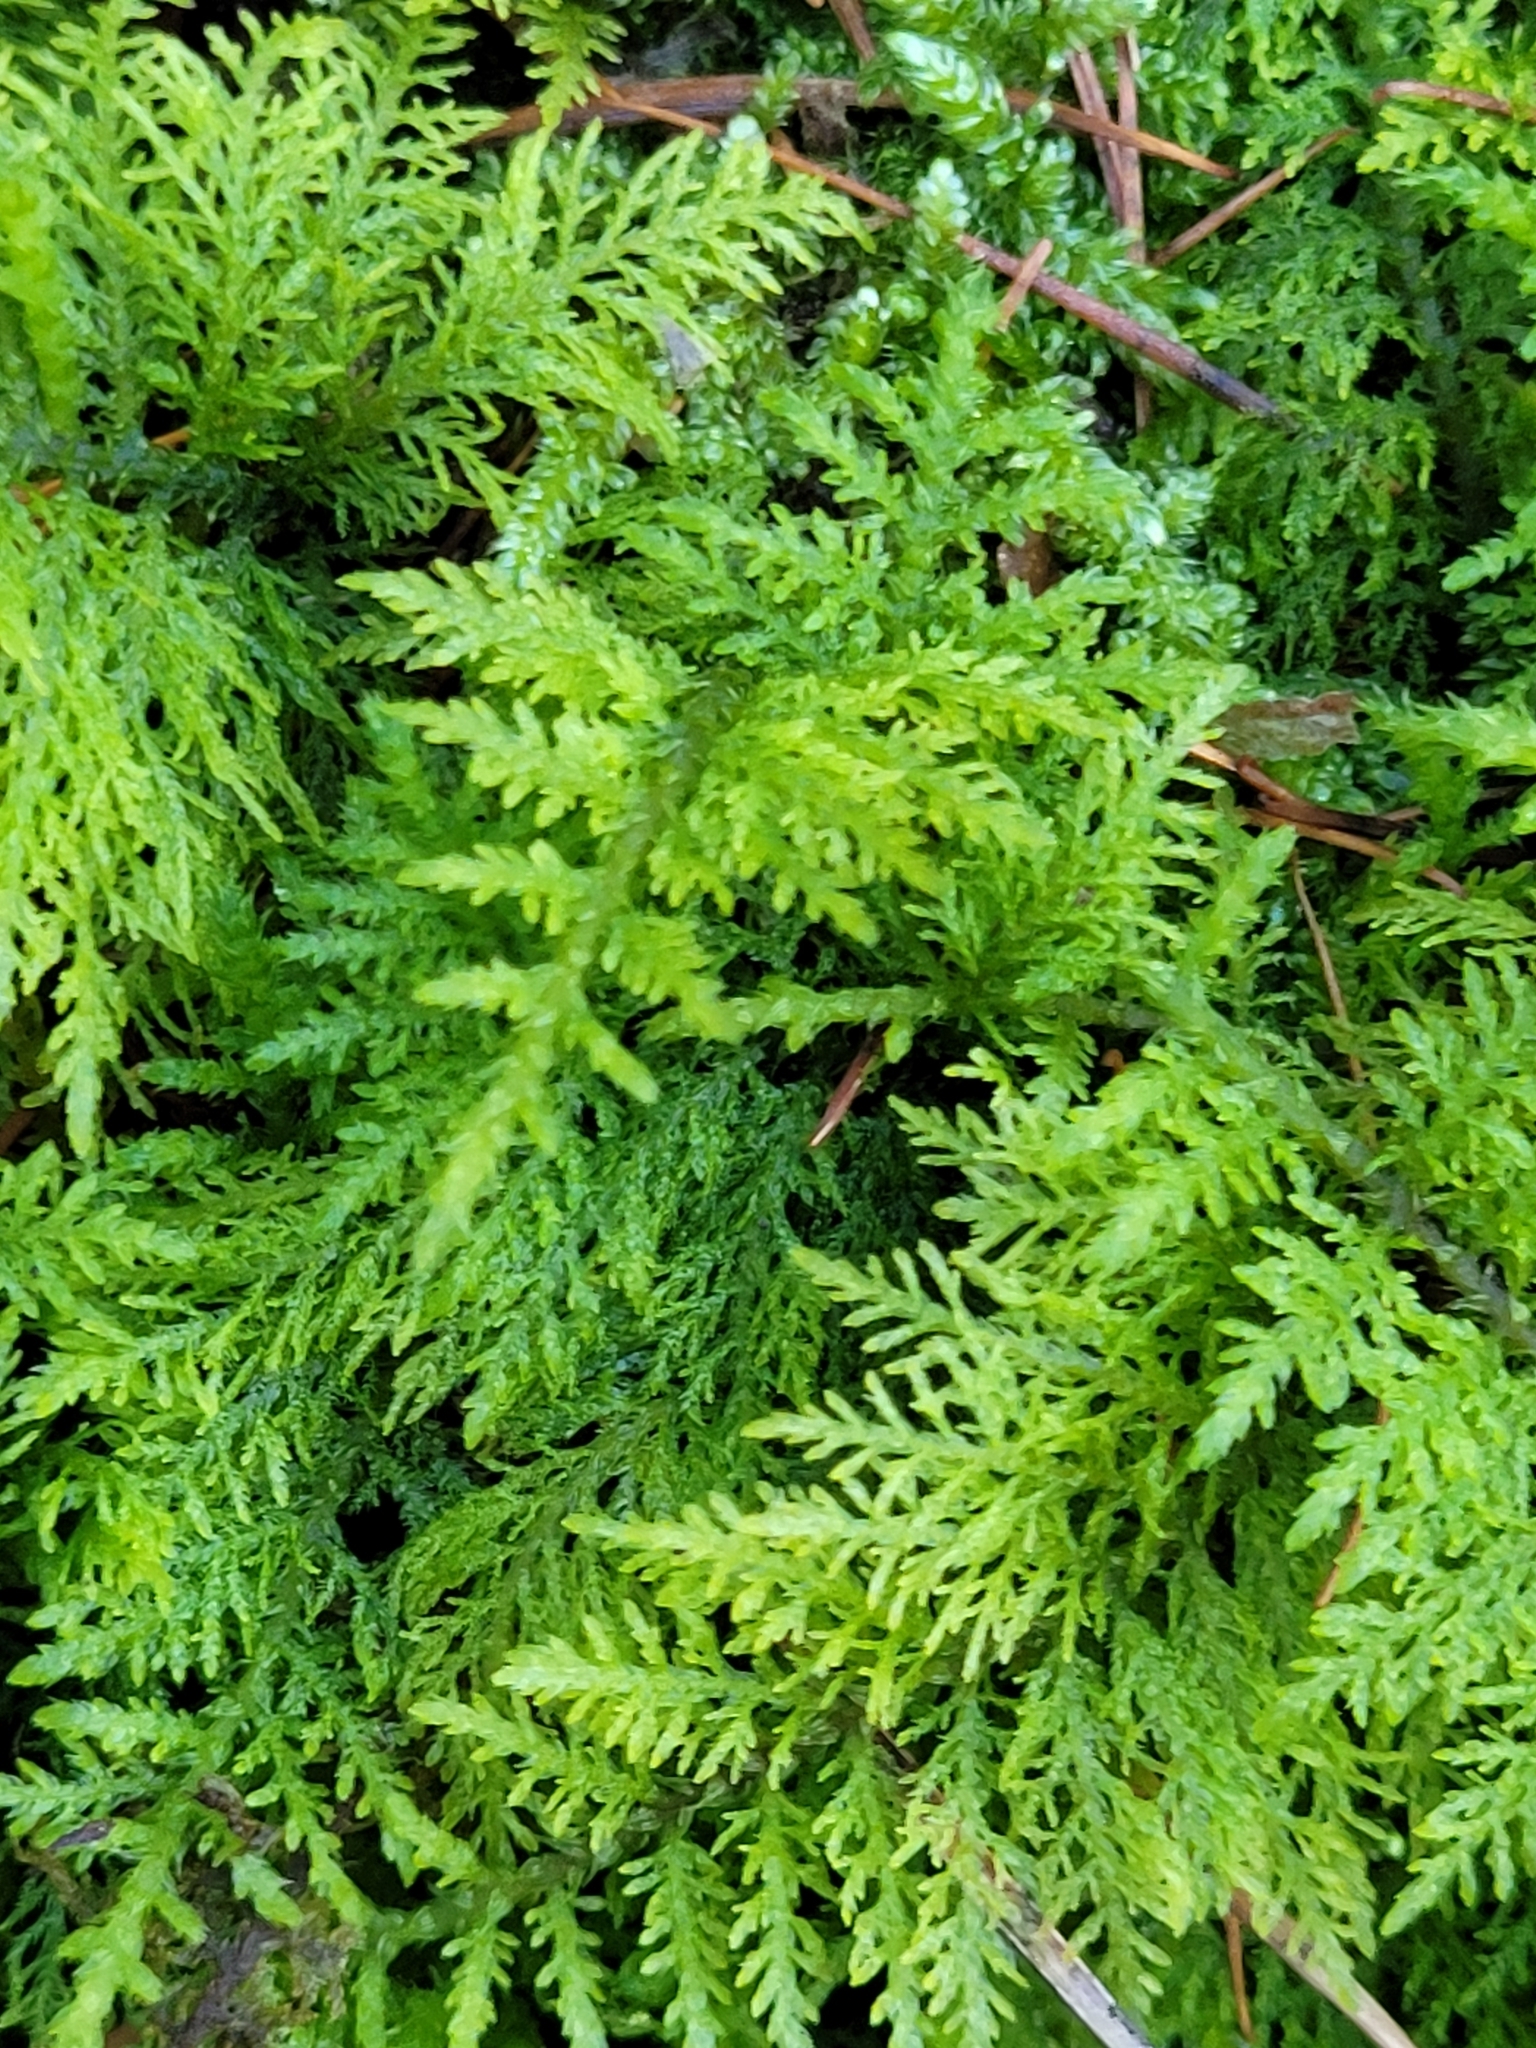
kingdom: Plantae
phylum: Bryophyta
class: Bryopsida
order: Hypnales
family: Thuidiaceae
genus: Thuidium
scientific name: Thuidium tamariscinum
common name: Common tamarisk-moss
